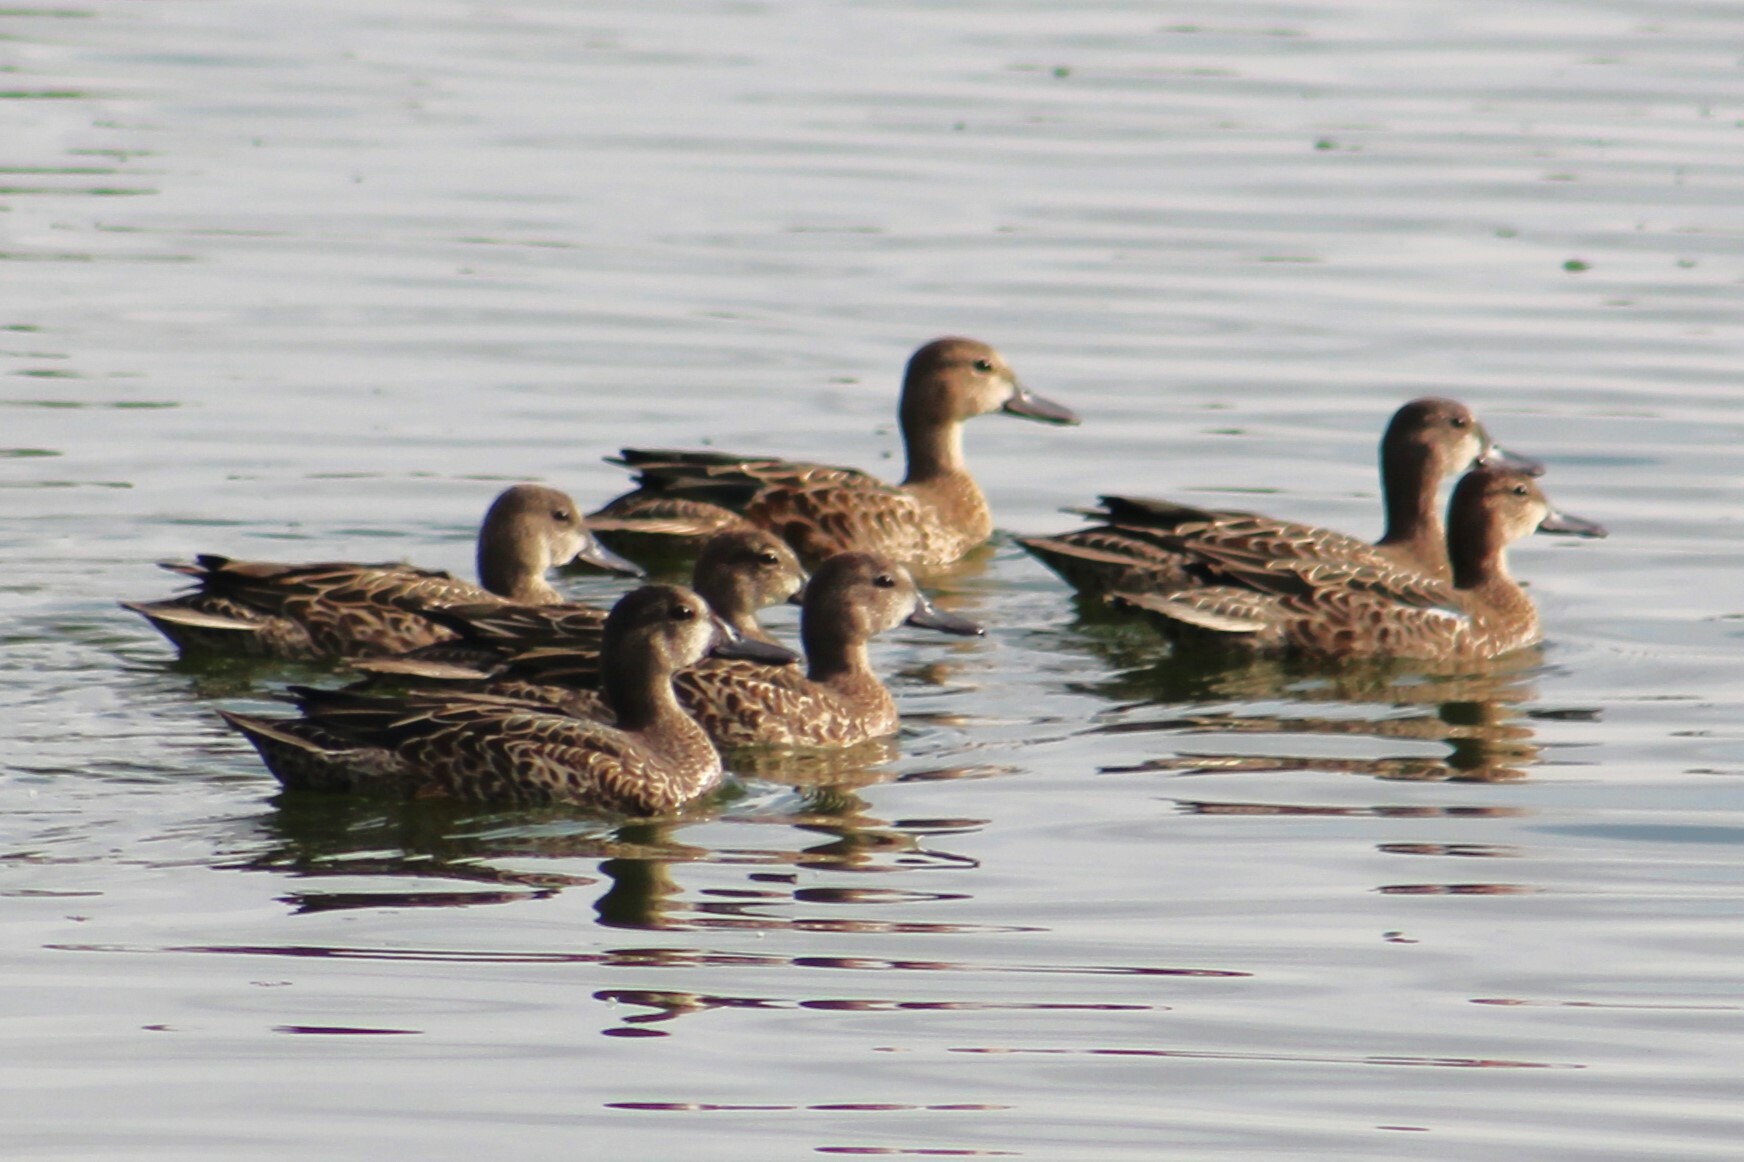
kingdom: Animalia
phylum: Chordata
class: Aves
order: Anseriformes
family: Anatidae
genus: Spatula
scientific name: Spatula discors
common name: Blue-winged teal
